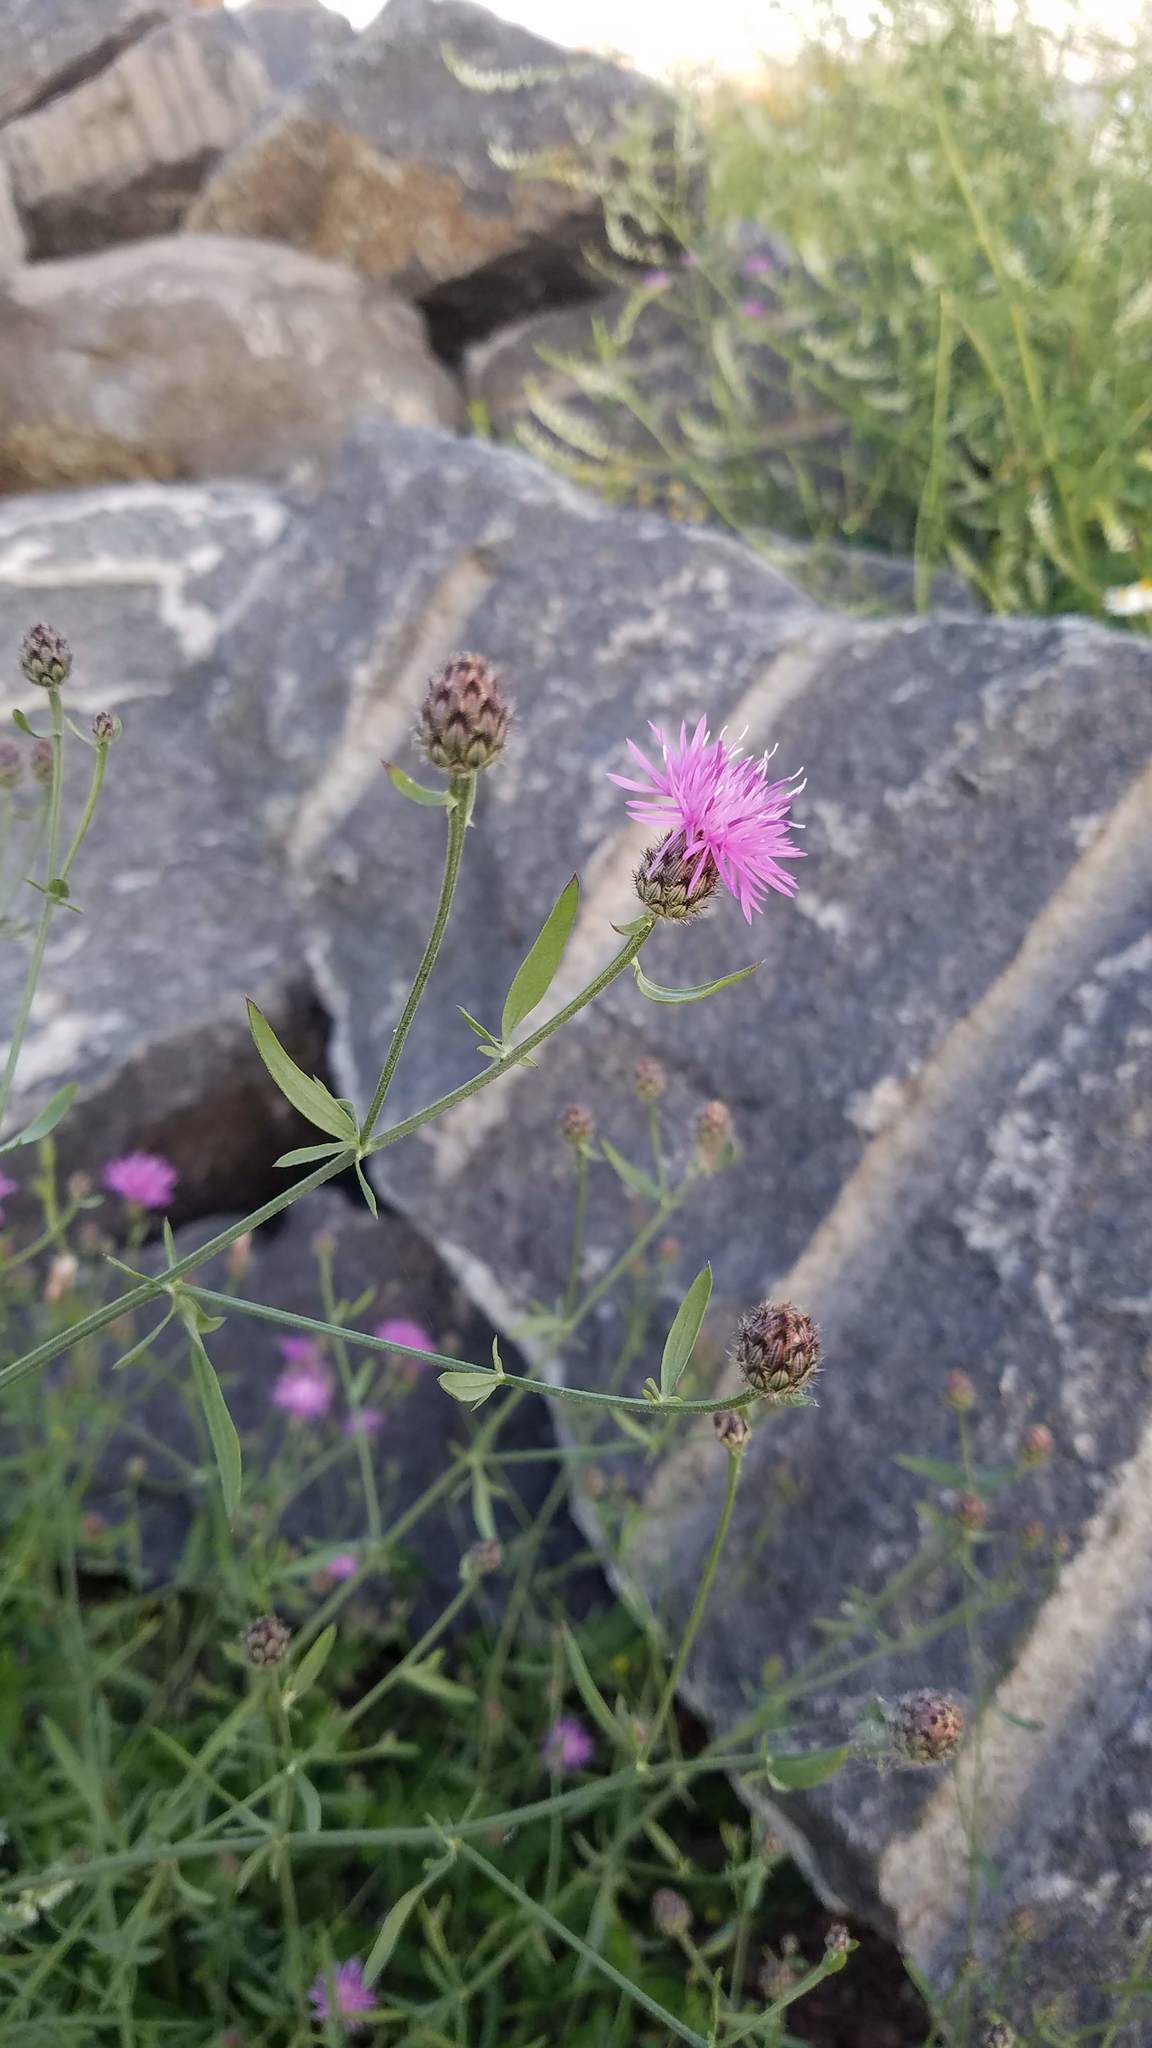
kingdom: Plantae
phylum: Tracheophyta
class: Magnoliopsida
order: Asterales
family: Asteraceae
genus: Centaurea
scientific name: Centaurea stoebe
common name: Spotted knapweed
